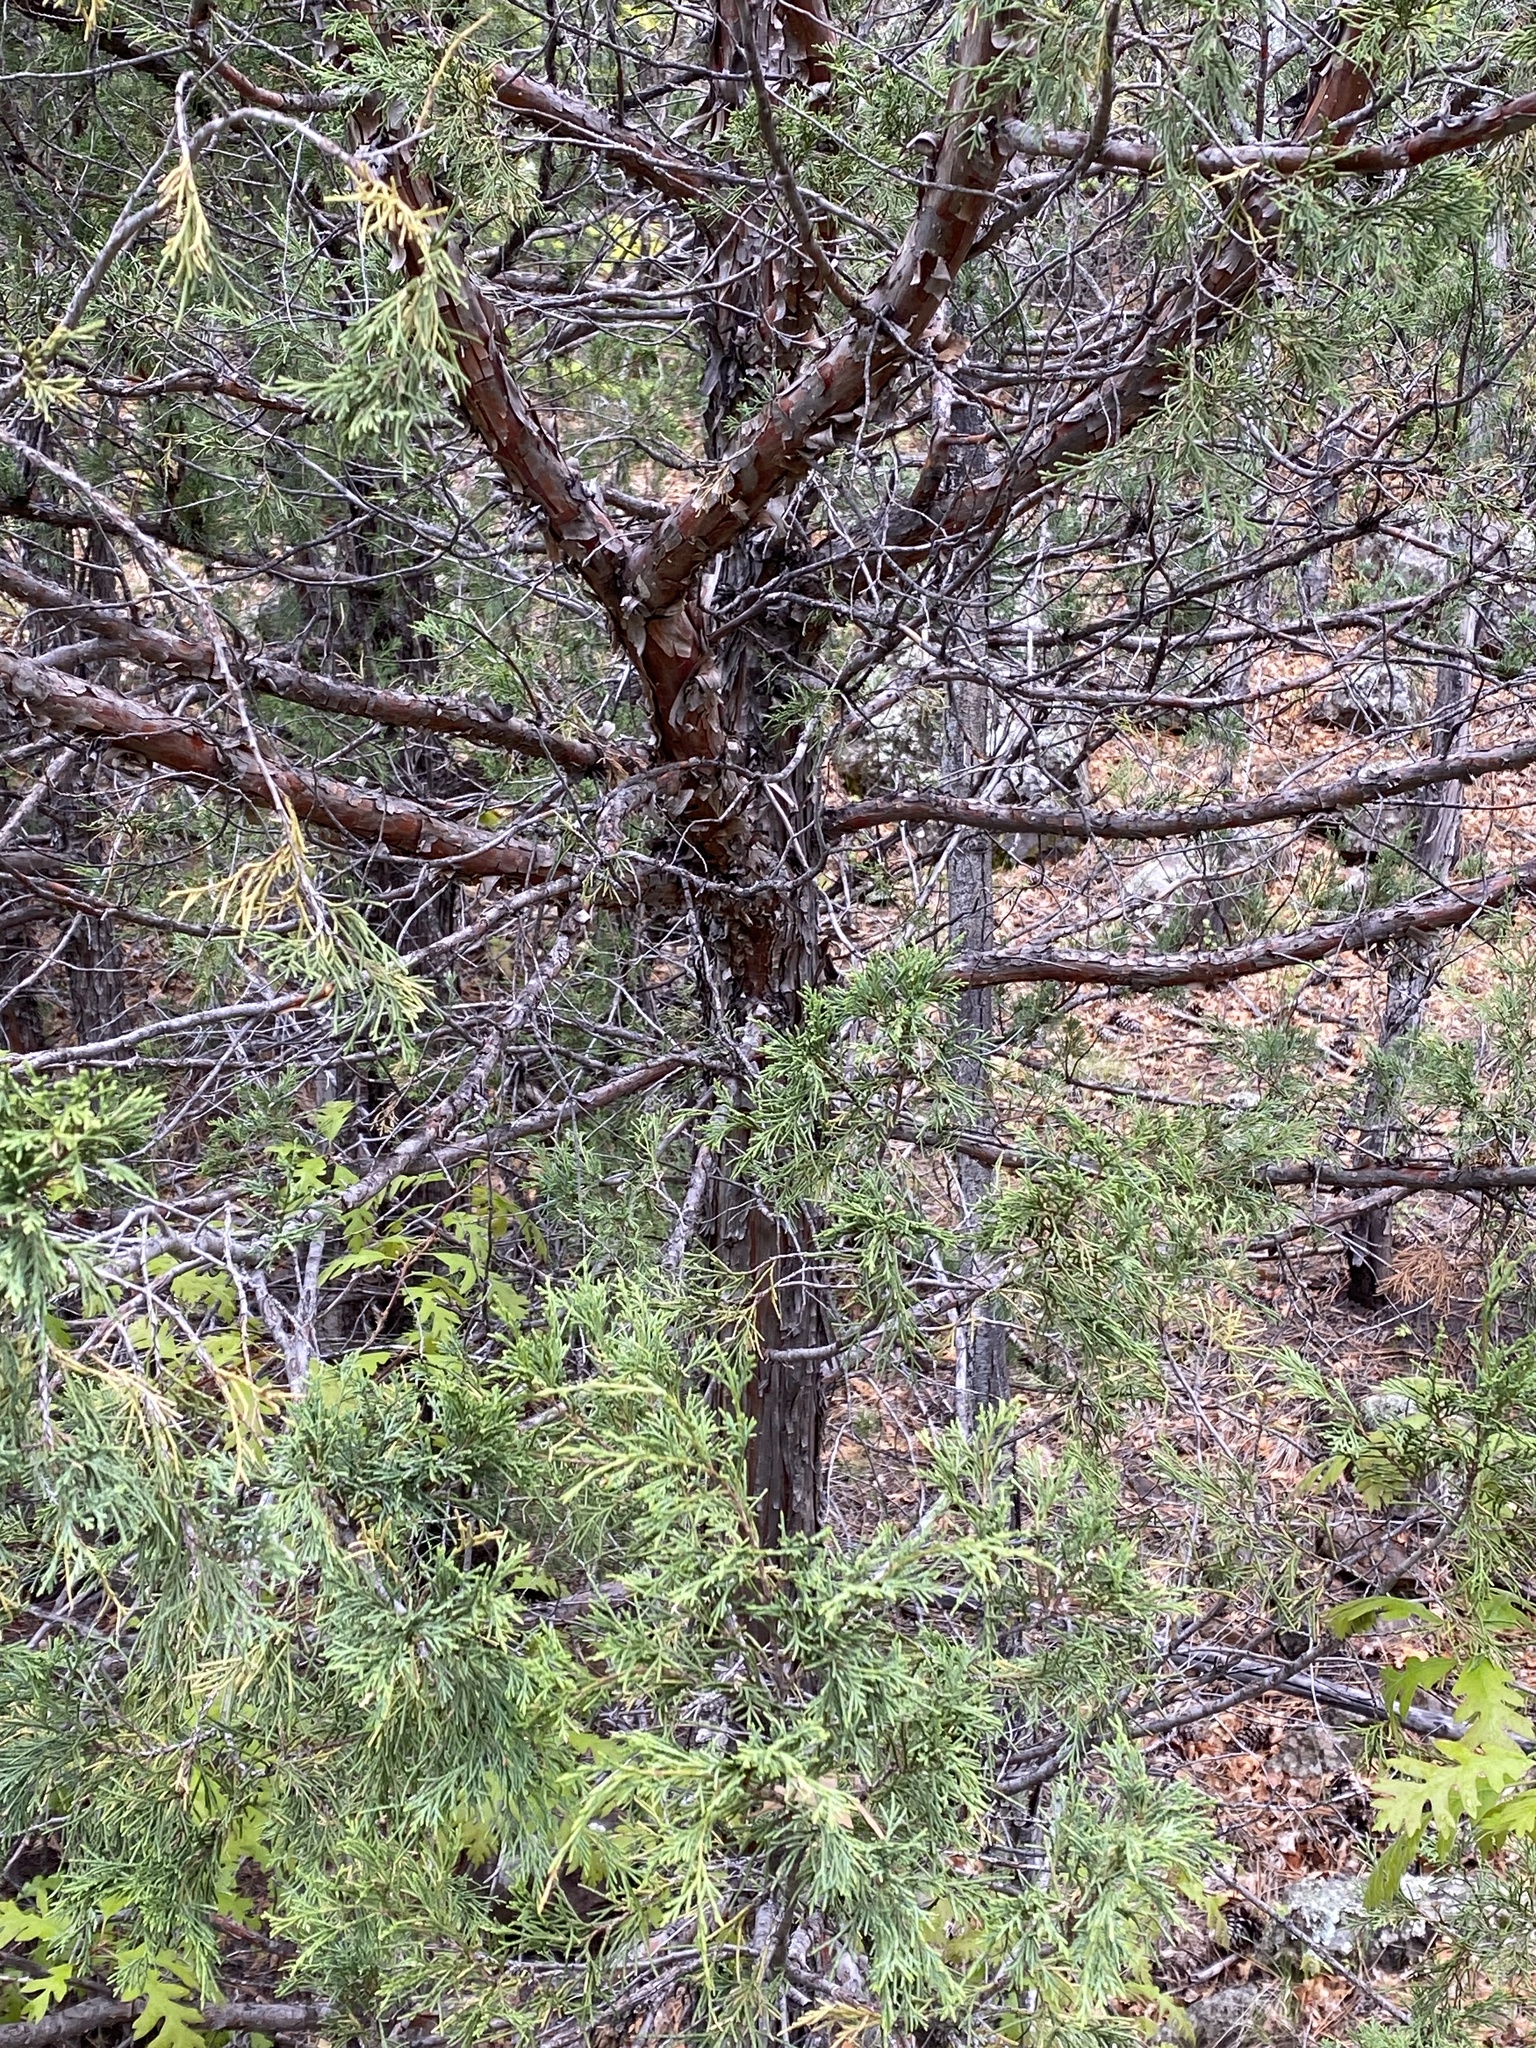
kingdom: Plantae
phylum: Tracheophyta
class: Pinopsida
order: Pinales
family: Cupressaceae
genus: Juniperus
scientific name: Juniperus scopulorum
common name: Rocky mountain juniper
